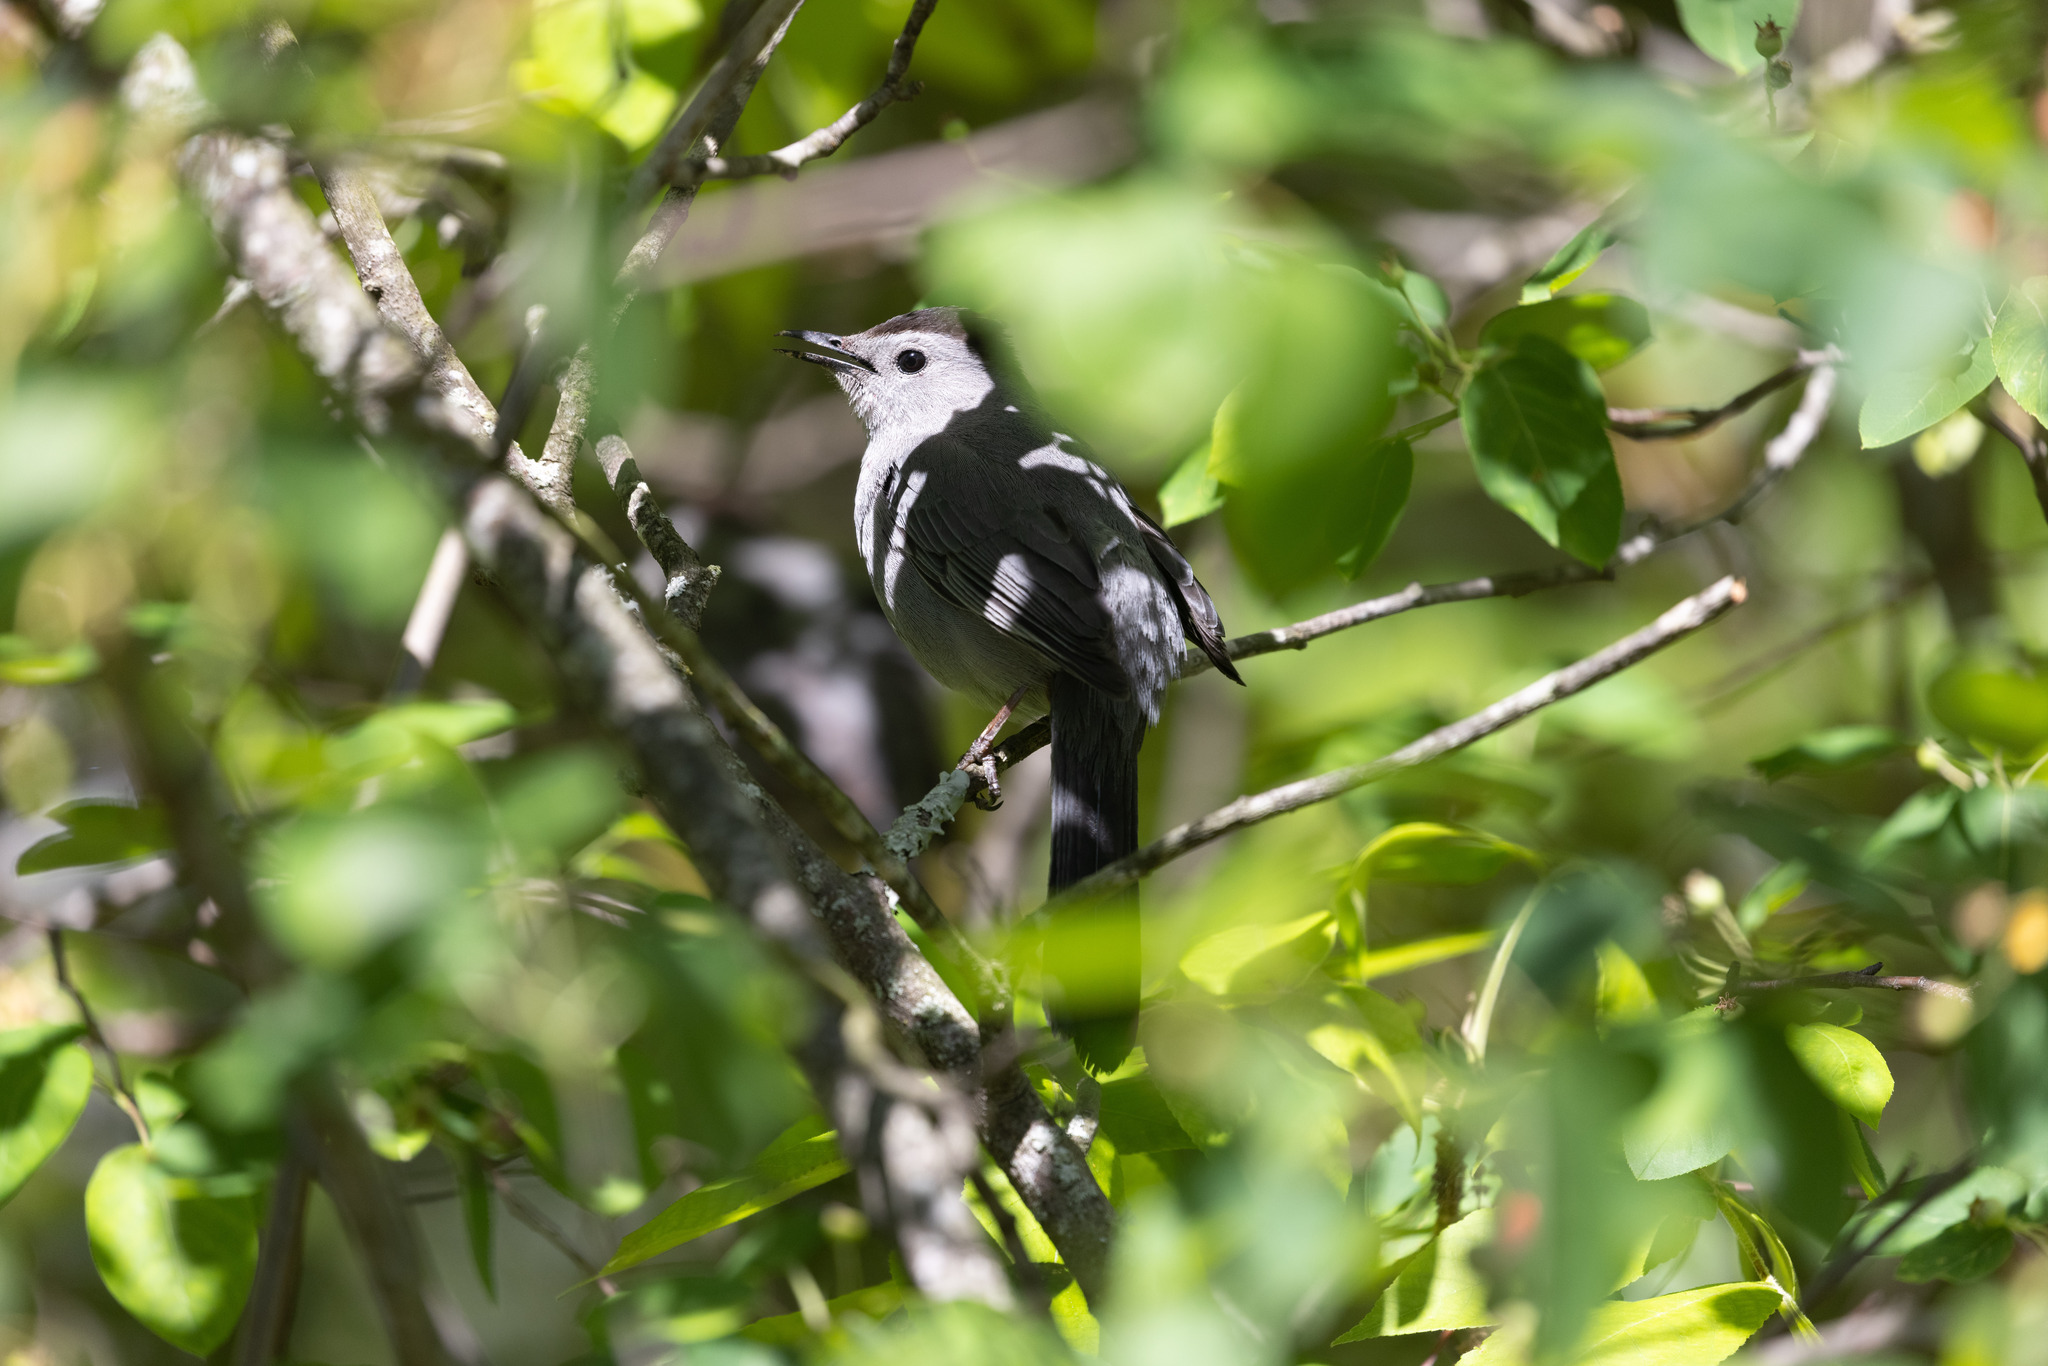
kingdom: Animalia
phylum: Chordata
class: Aves
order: Passeriformes
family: Mimidae
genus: Dumetella
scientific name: Dumetella carolinensis
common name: Gray catbird
